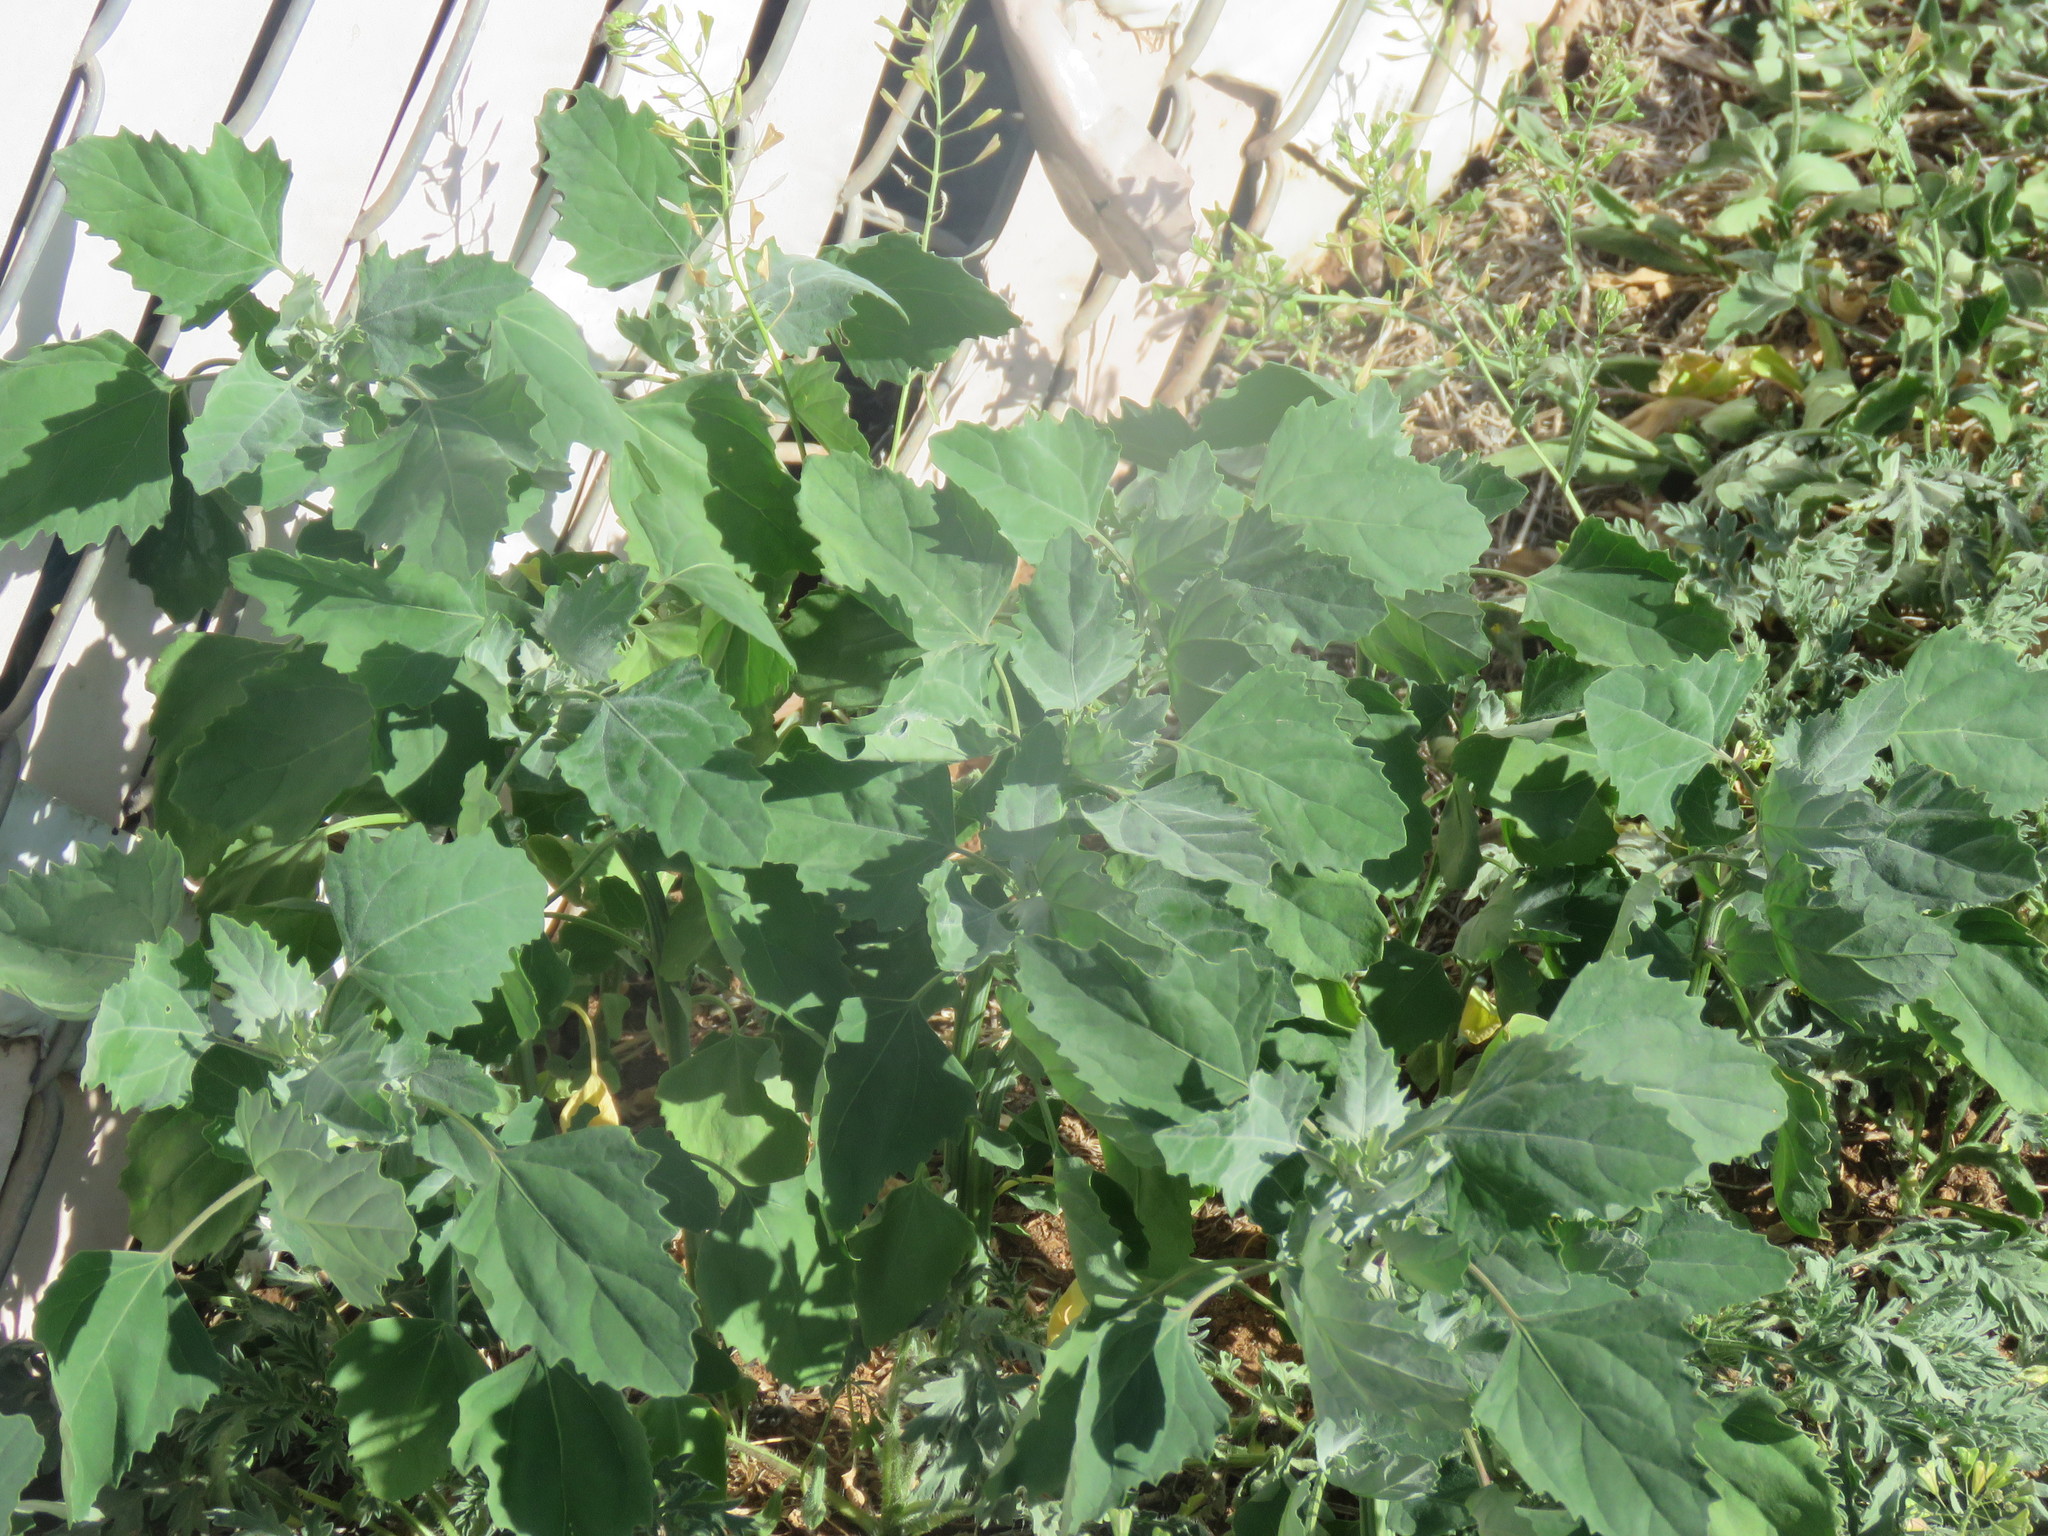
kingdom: Plantae
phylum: Tracheophyta
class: Magnoliopsida
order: Caryophyllales
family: Amaranthaceae
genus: Chenopodium
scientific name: Chenopodium album
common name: Fat-hen
